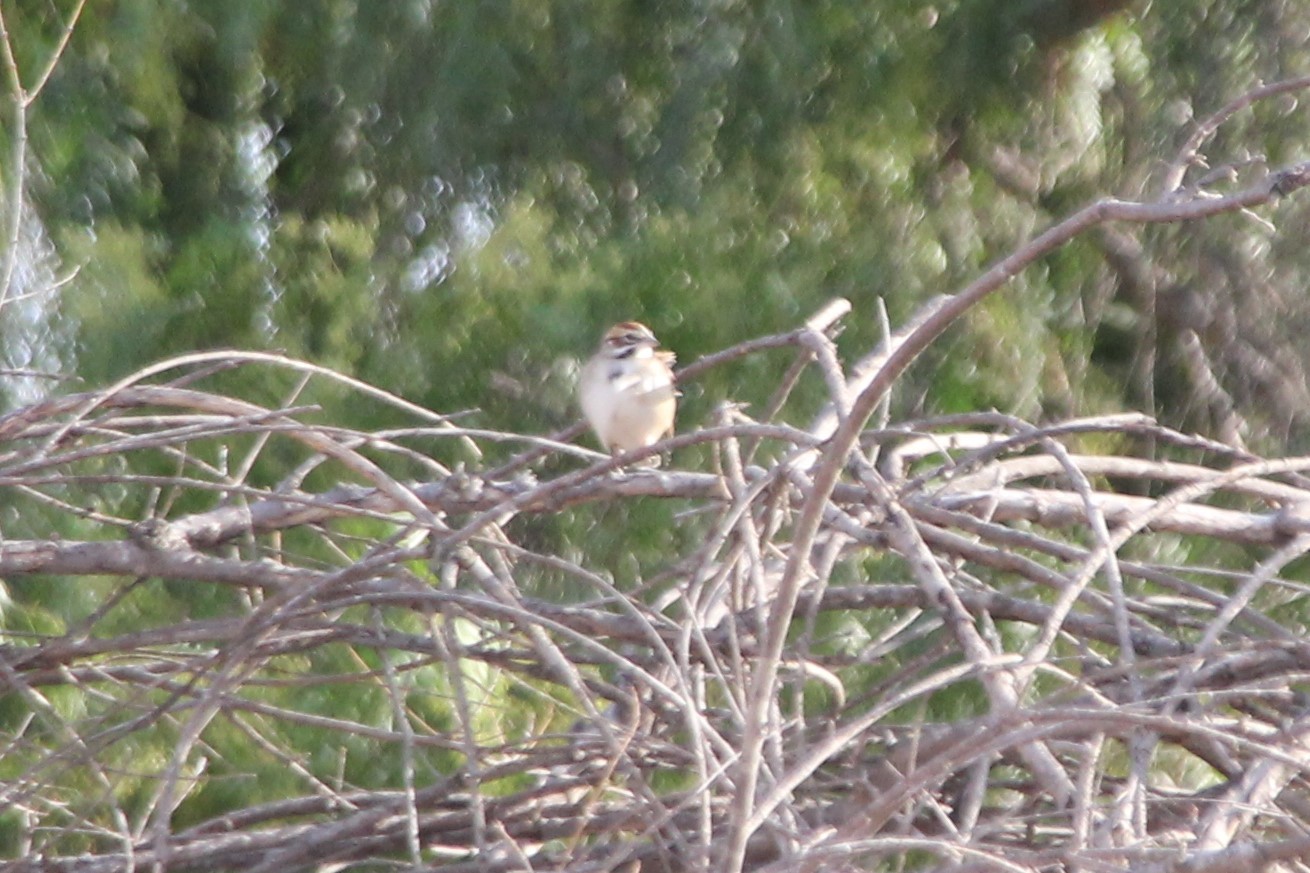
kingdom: Animalia
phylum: Chordata
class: Aves
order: Passeriformes
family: Passerellidae
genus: Chondestes
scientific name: Chondestes grammacus
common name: Lark sparrow
